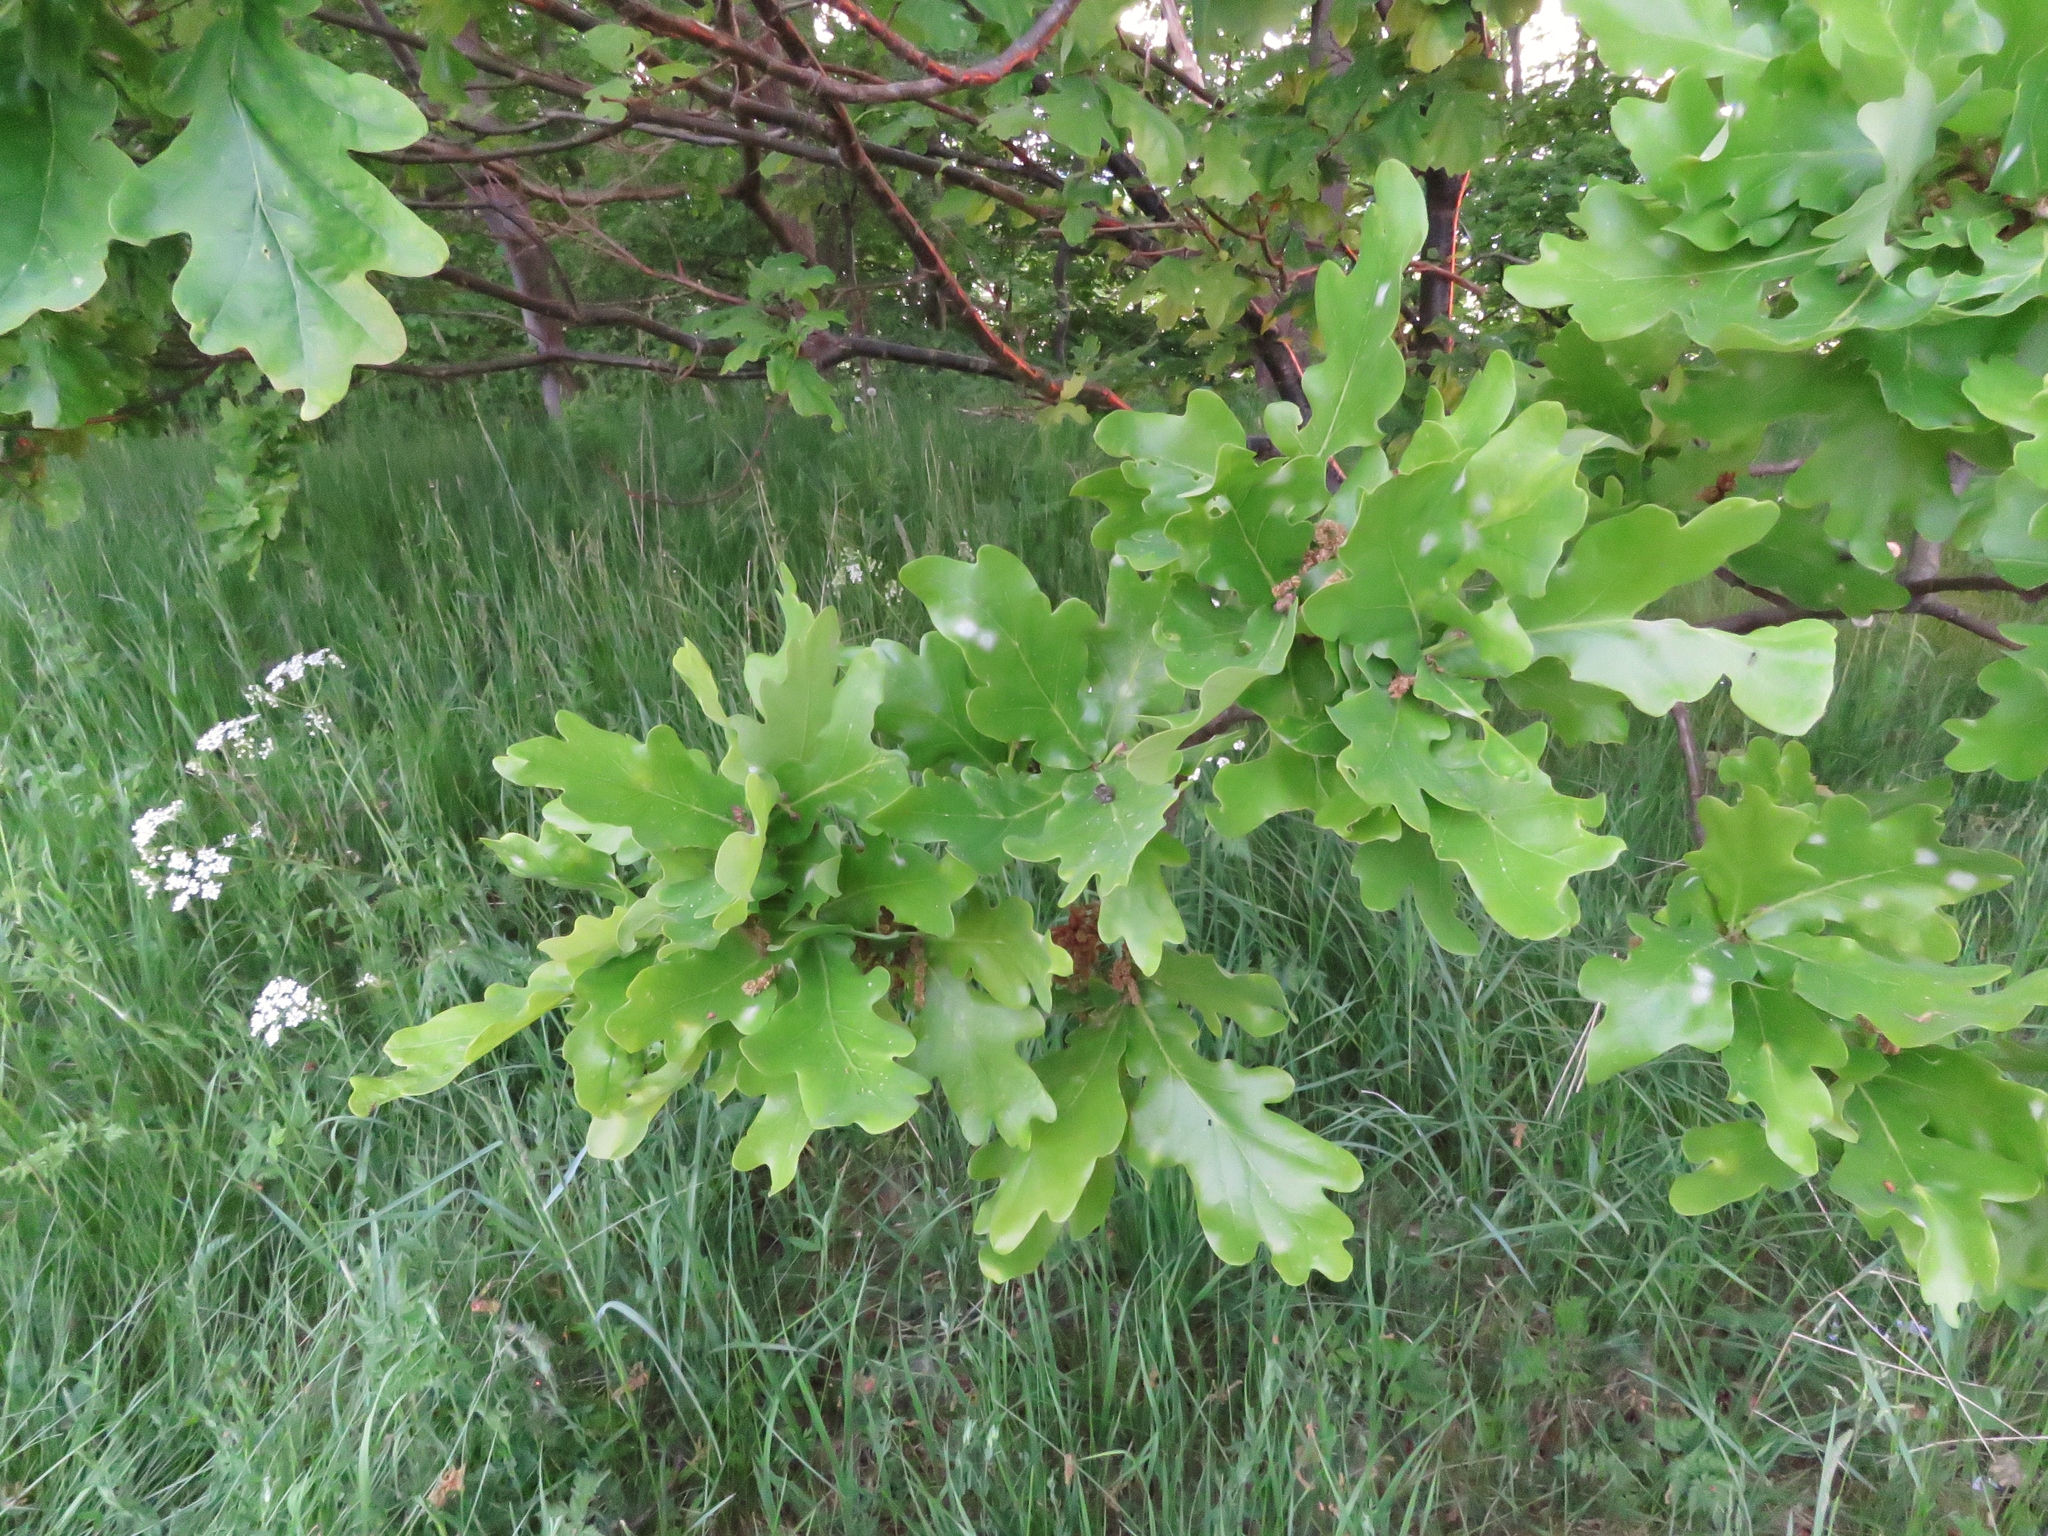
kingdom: Plantae
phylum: Tracheophyta
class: Magnoliopsida
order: Fagales
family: Fagaceae
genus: Quercus
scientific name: Quercus robur
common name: Pedunculate oak
